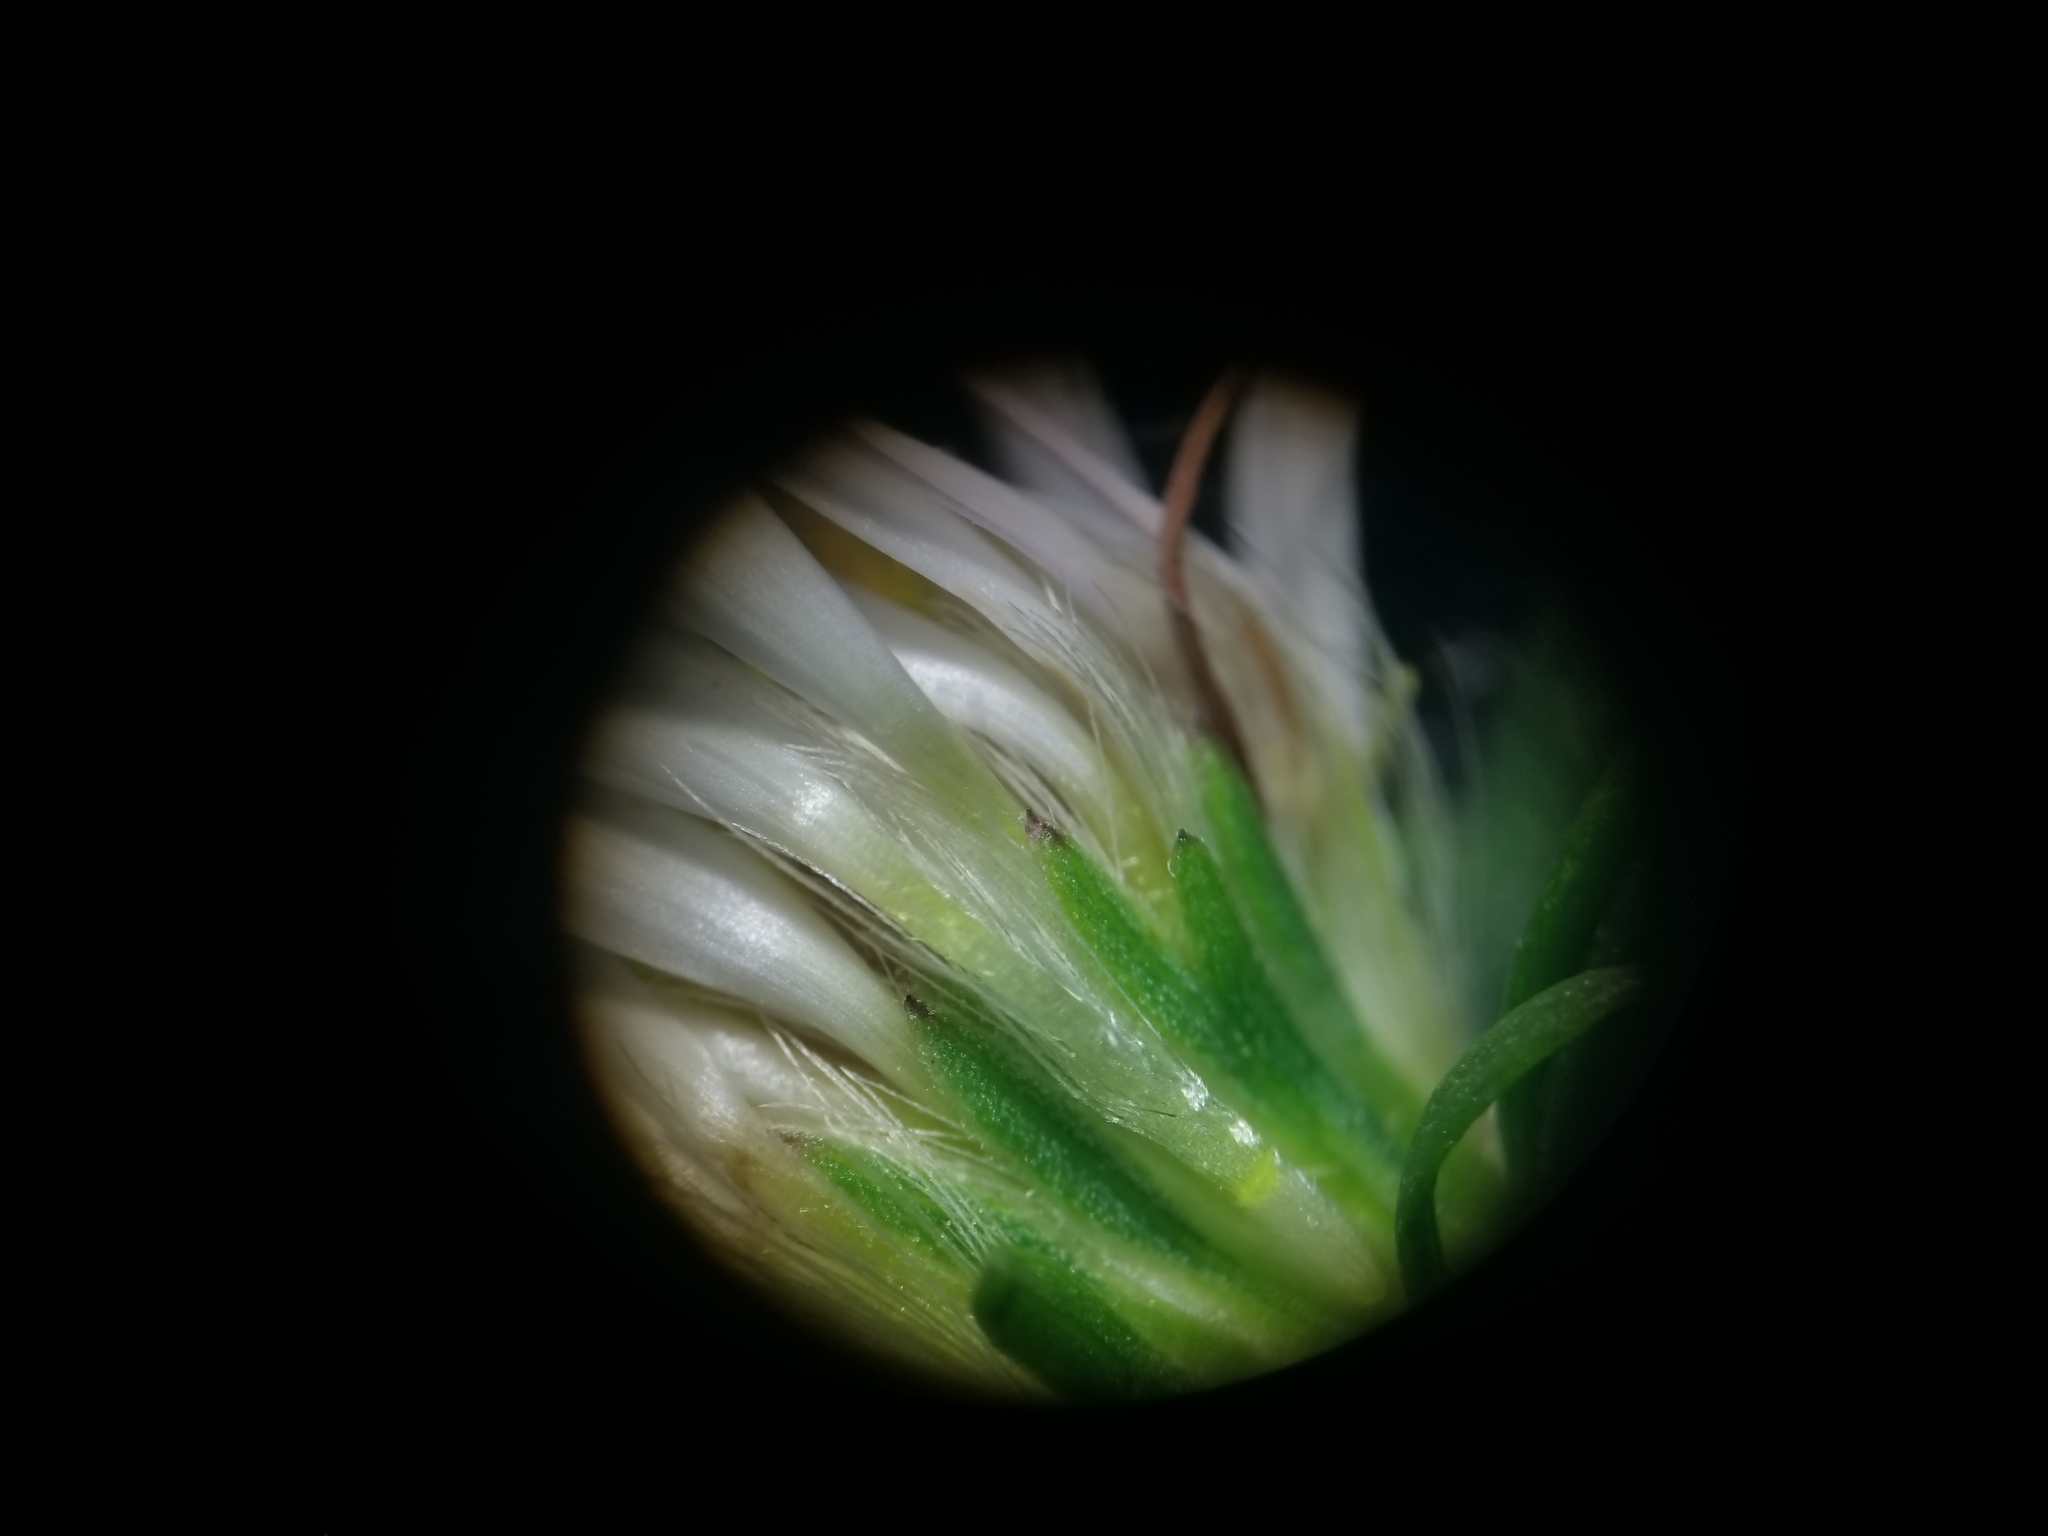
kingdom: Plantae
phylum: Tracheophyta
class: Magnoliopsida
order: Asterales
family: Asteraceae
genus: Symphyotrichum
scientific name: Symphyotrichum lanceolatum
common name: Panicled aster
